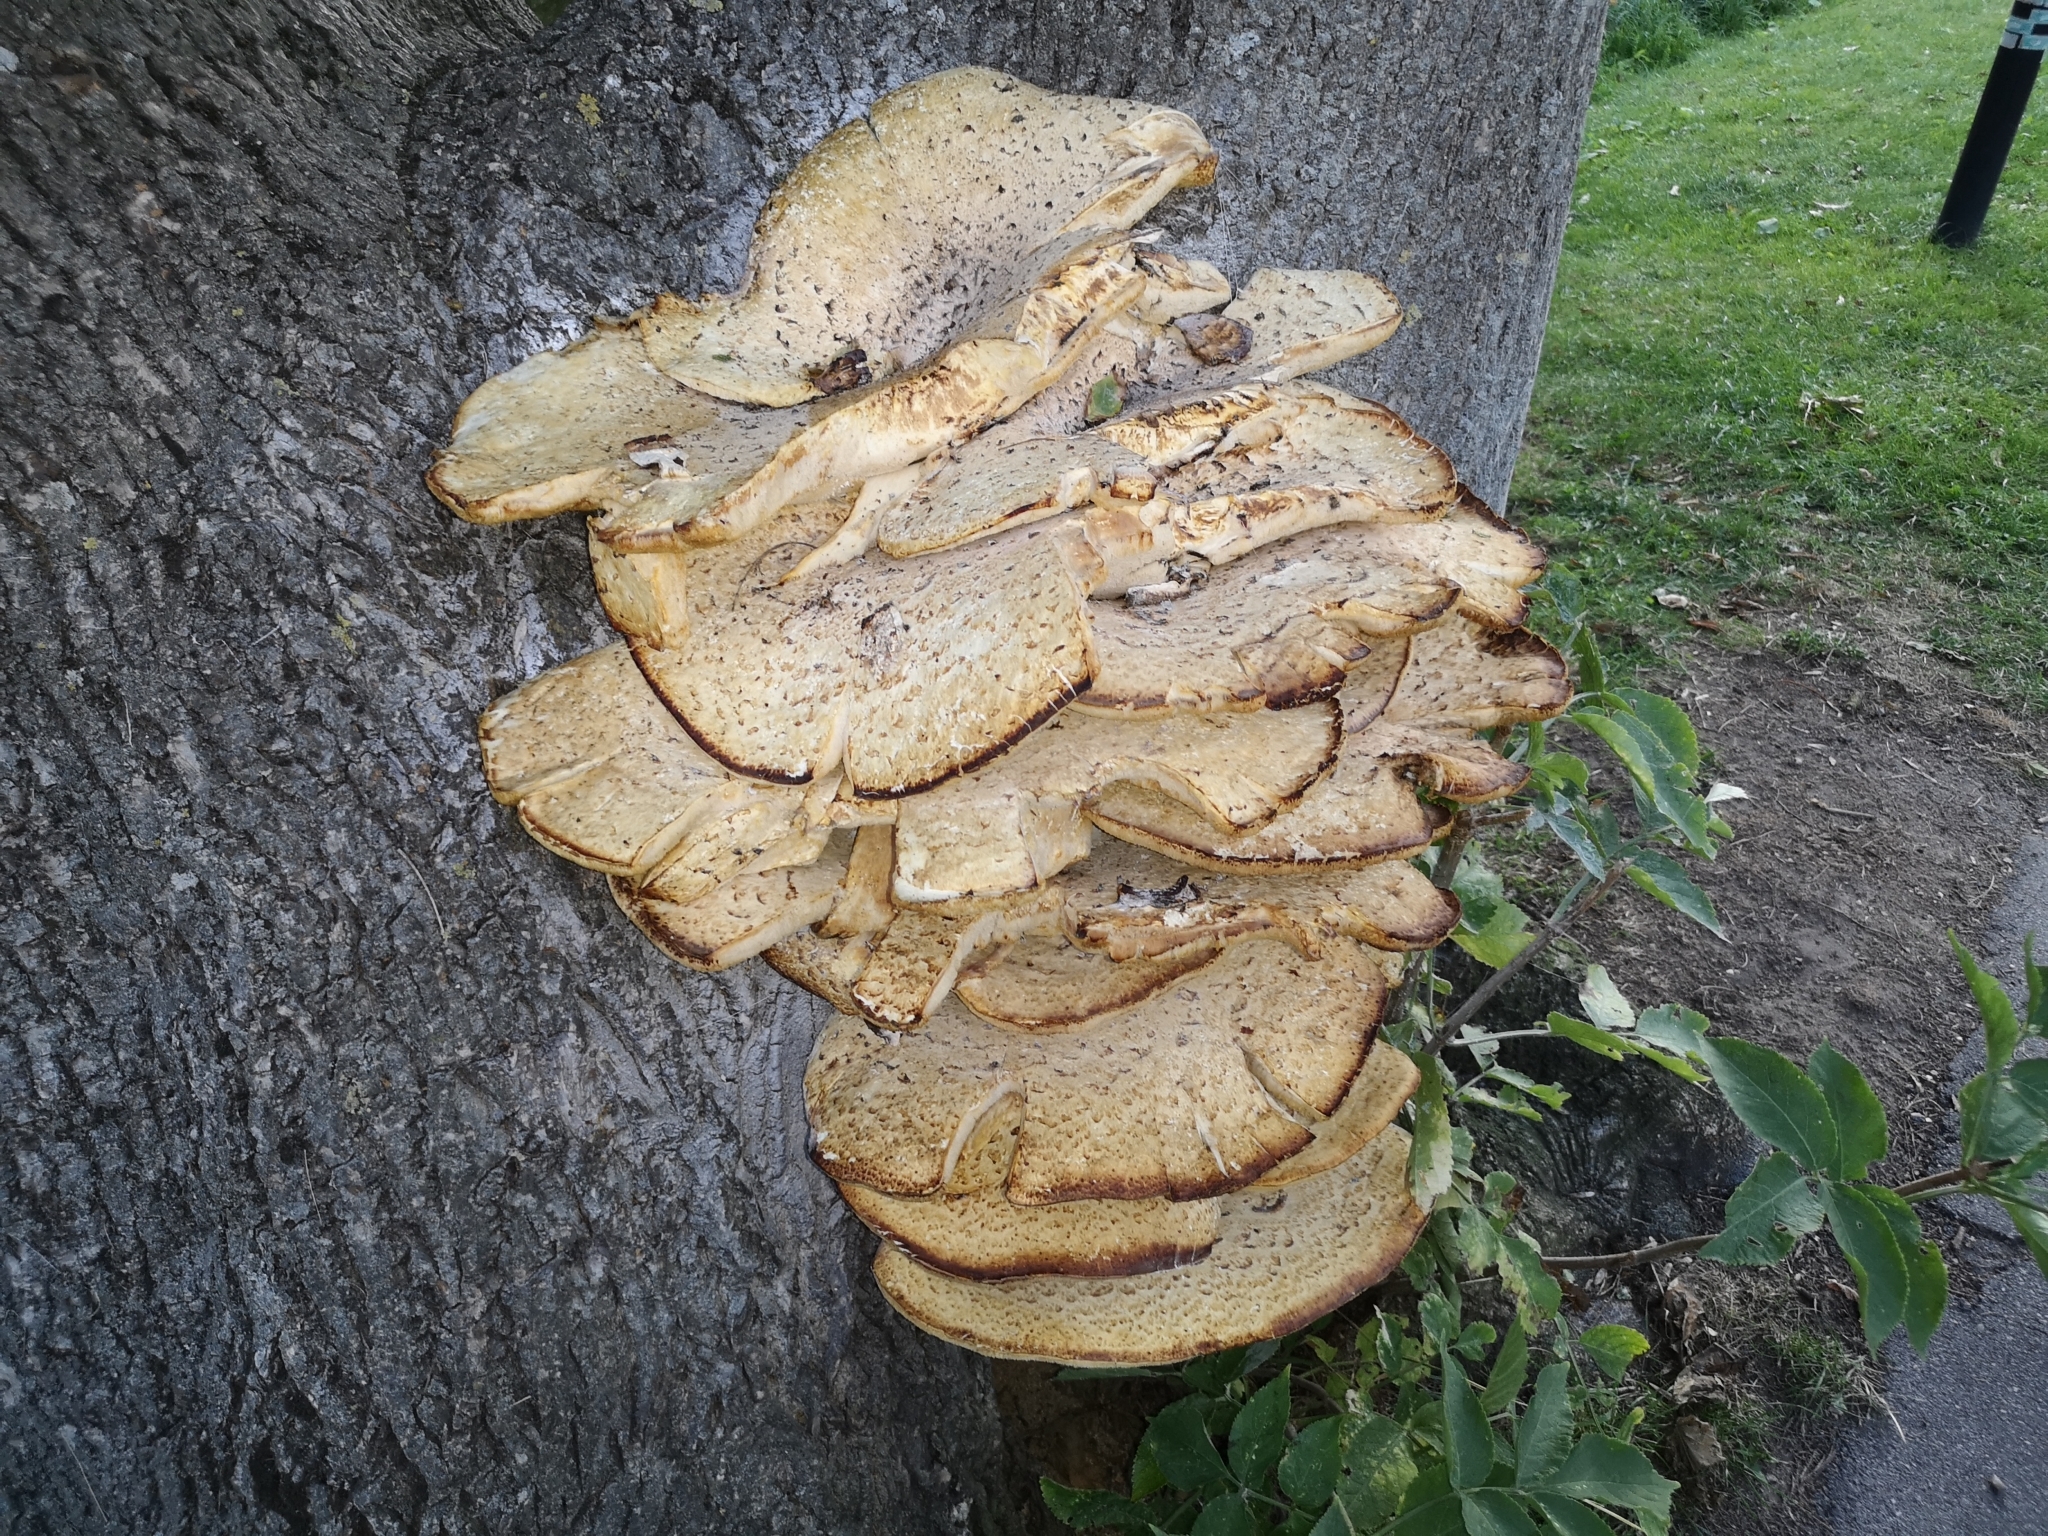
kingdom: Fungi
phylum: Basidiomycota
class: Agaricomycetes
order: Polyporales
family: Polyporaceae
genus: Cerioporus
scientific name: Cerioporus squamosus
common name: Dryad's saddle
